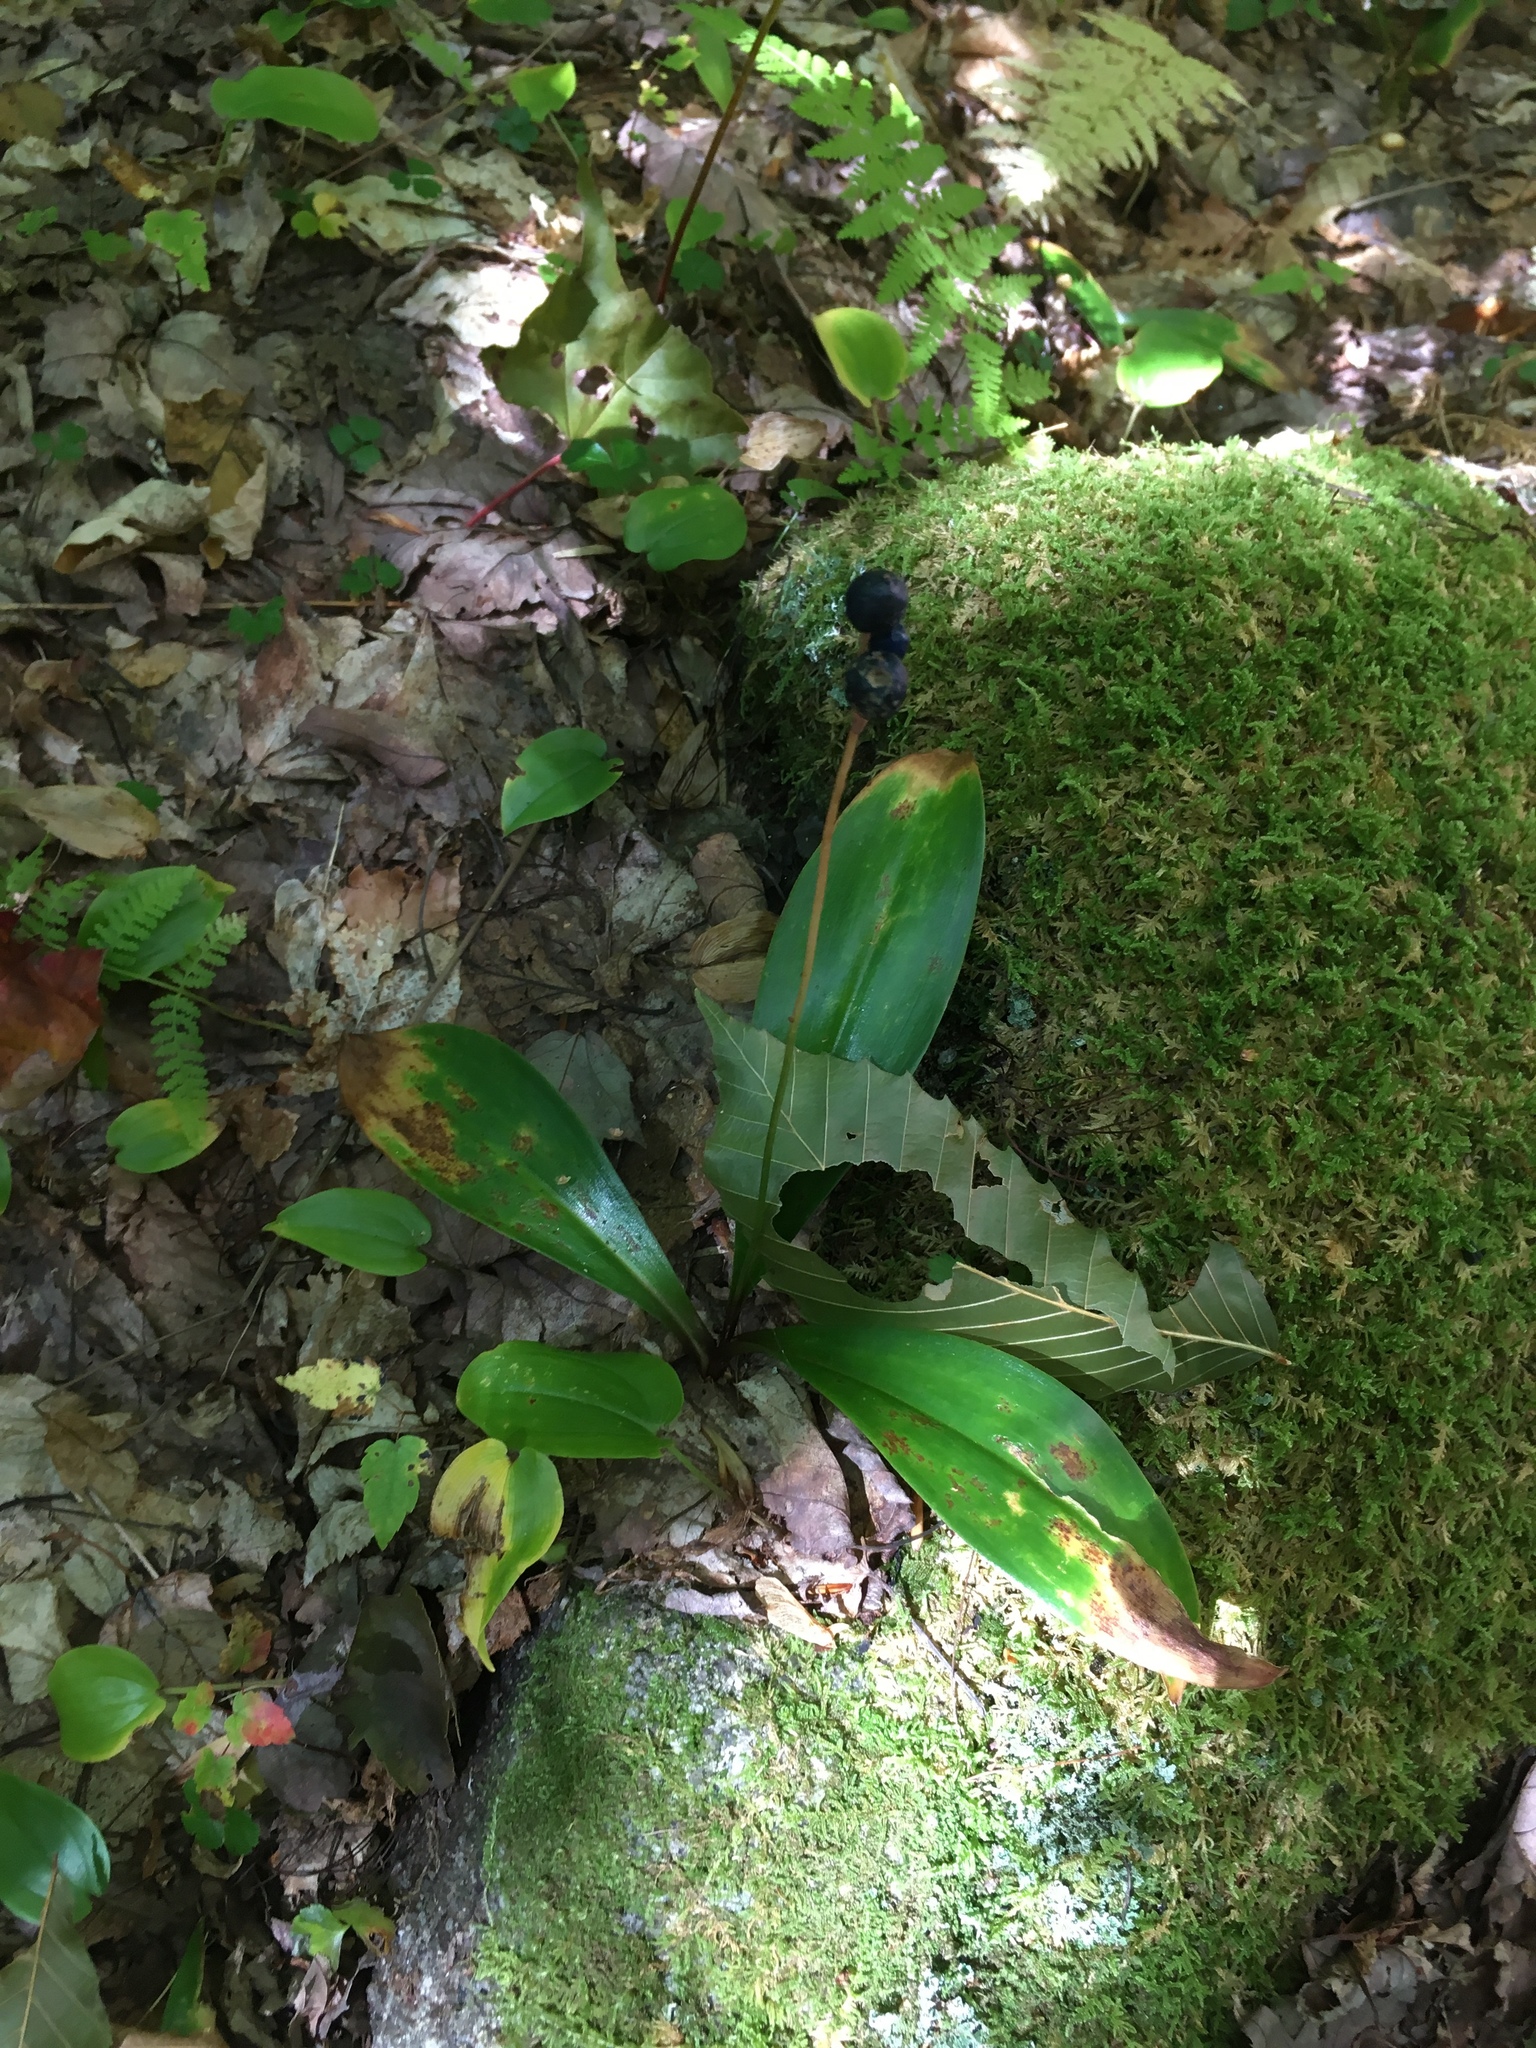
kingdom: Plantae
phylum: Tracheophyta
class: Liliopsida
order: Liliales
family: Liliaceae
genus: Clintonia
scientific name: Clintonia borealis
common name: Yellow clintonia
